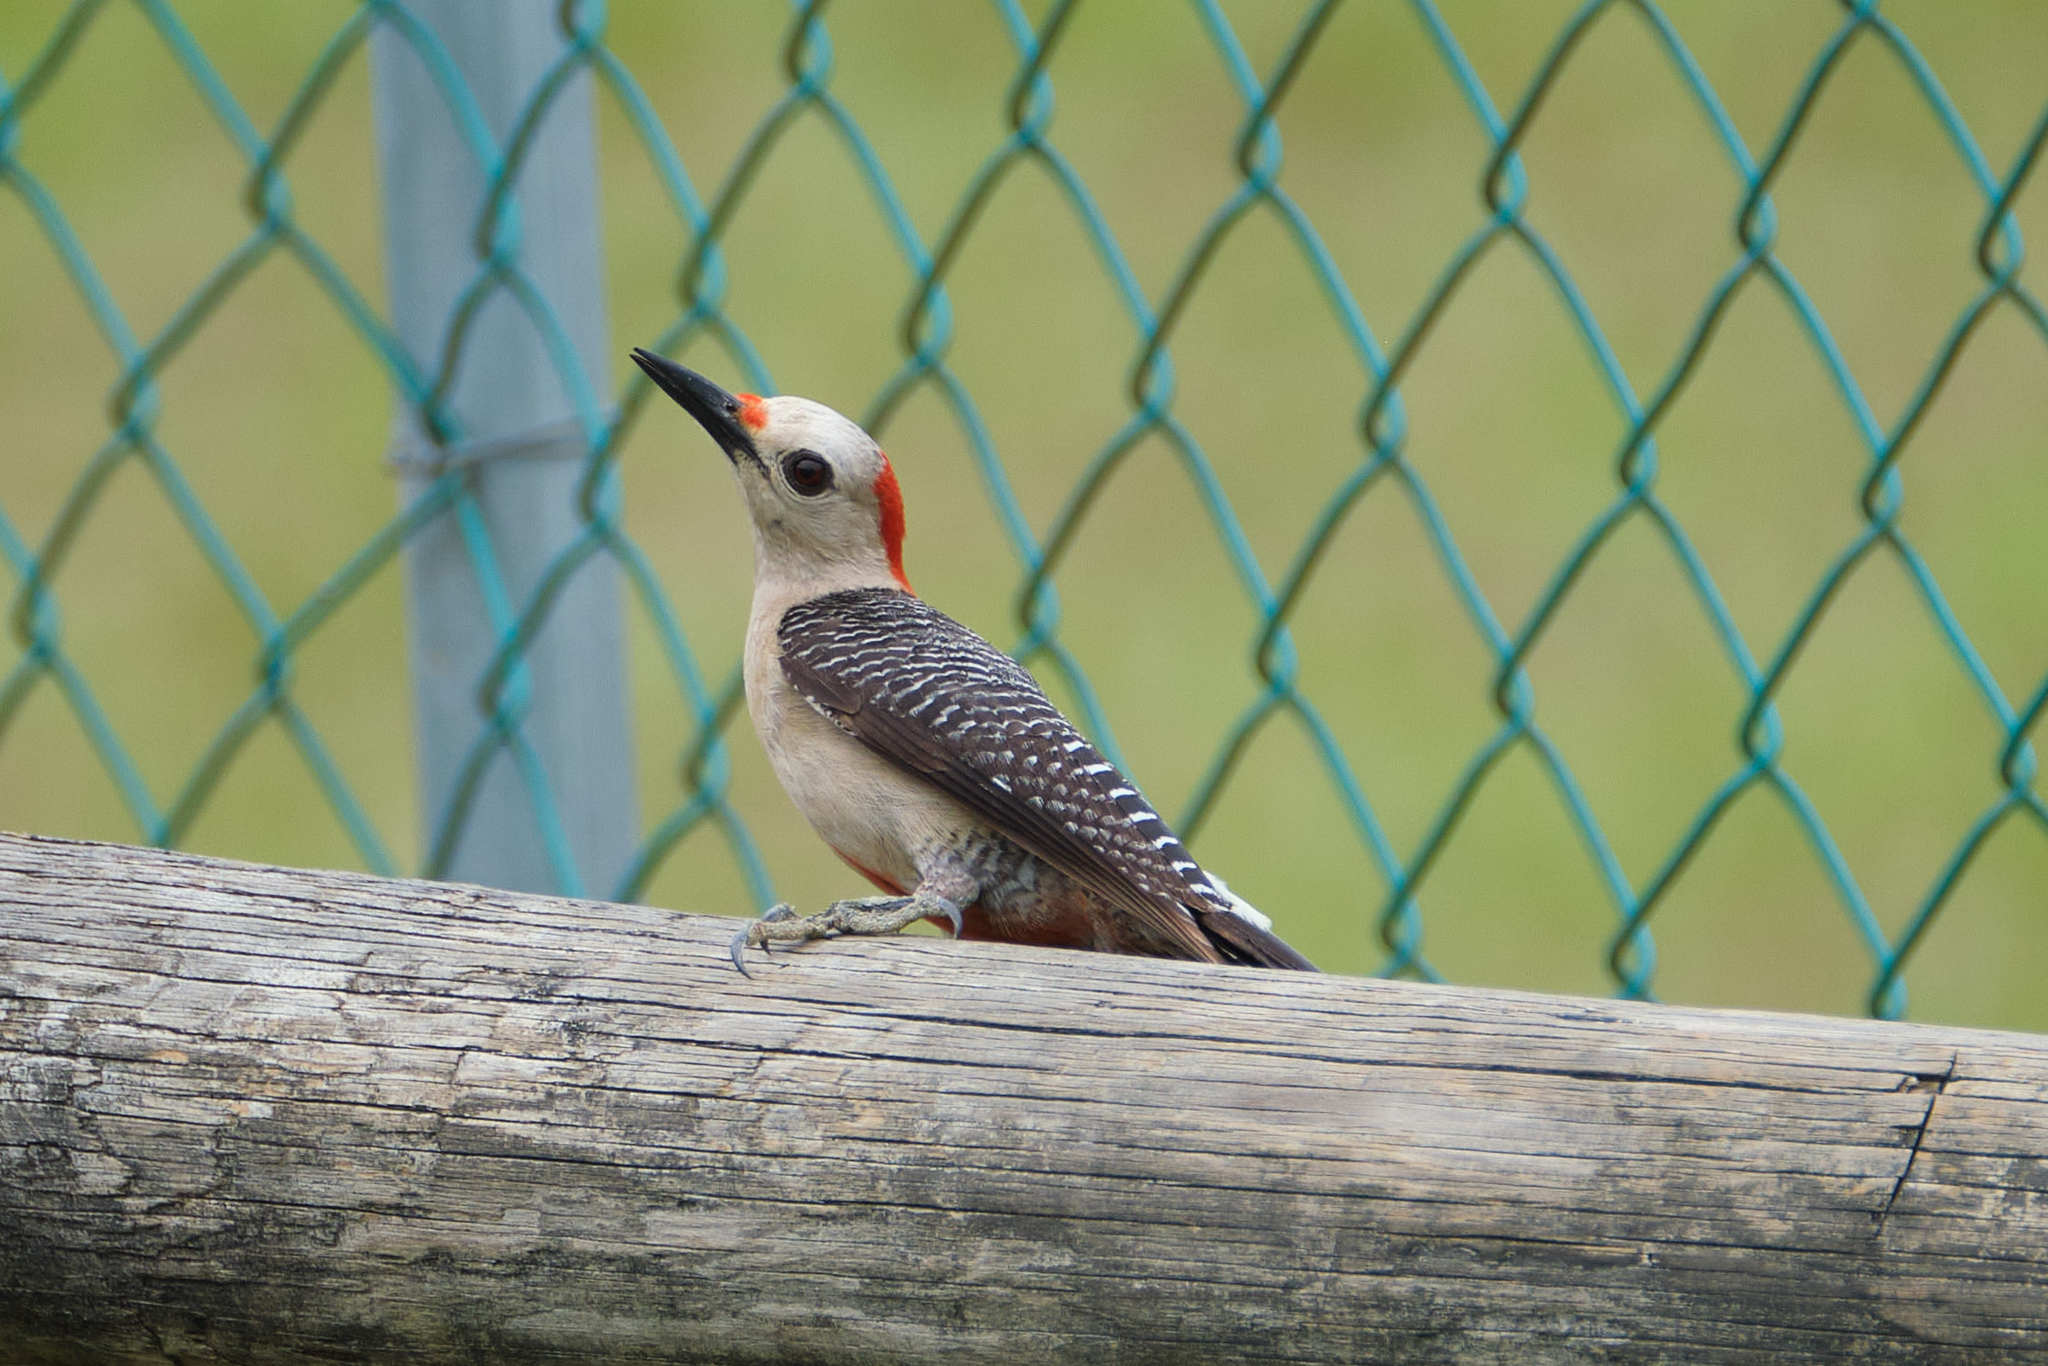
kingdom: Animalia
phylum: Chordata
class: Aves
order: Piciformes
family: Picidae
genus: Melanerpes
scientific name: Melanerpes santacruzi
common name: Velasquez's woodpecker
